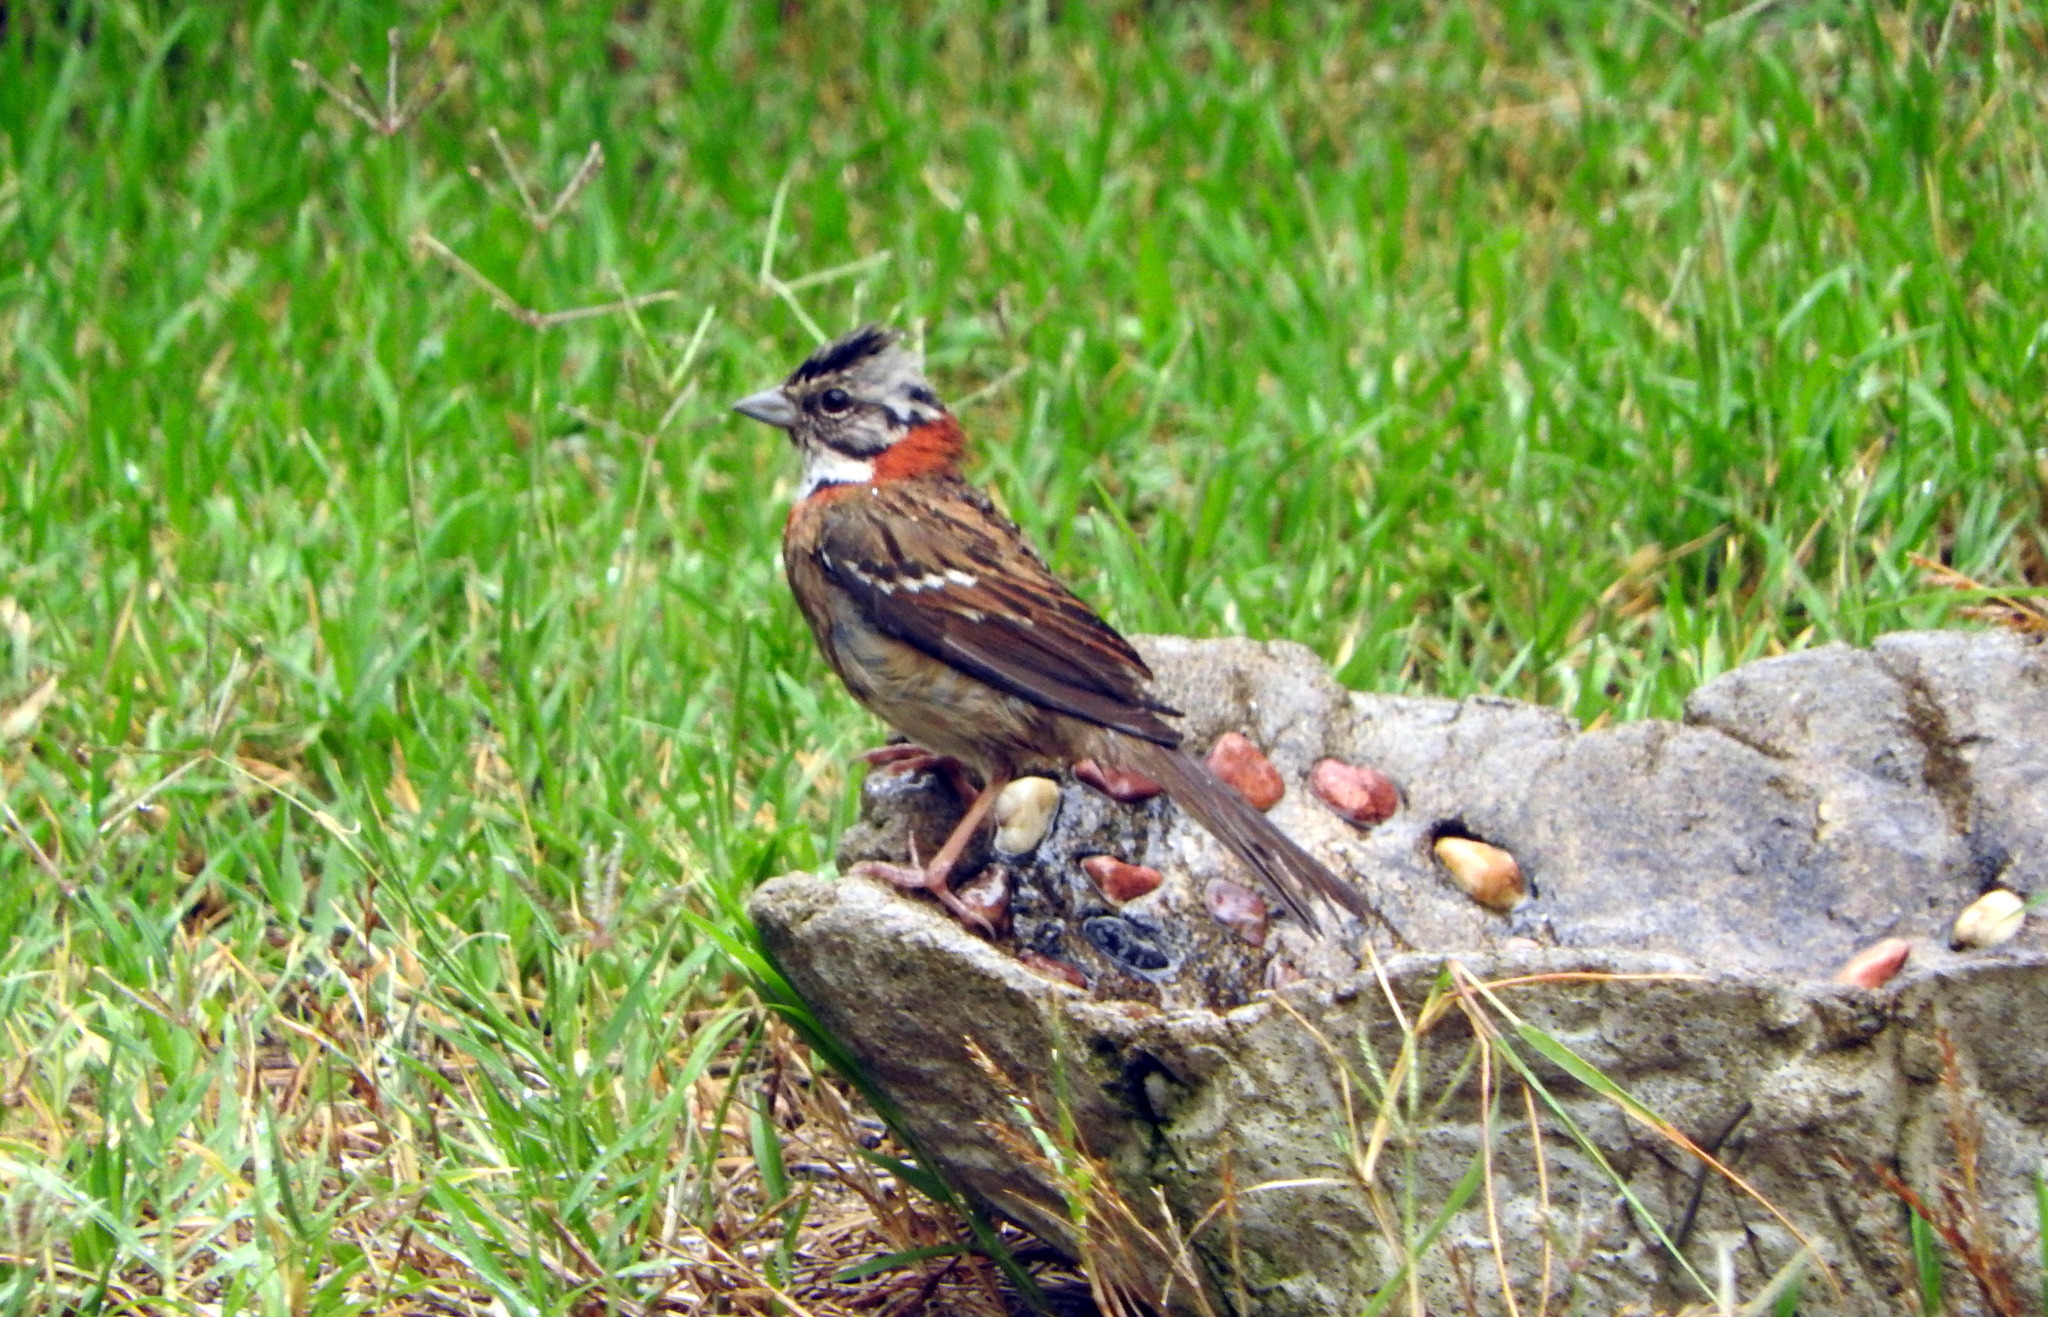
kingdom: Animalia
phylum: Chordata
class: Aves
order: Passeriformes
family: Passerellidae
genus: Zonotrichia
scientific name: Zonotrichia capensis
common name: Rufous-collared sparrow
